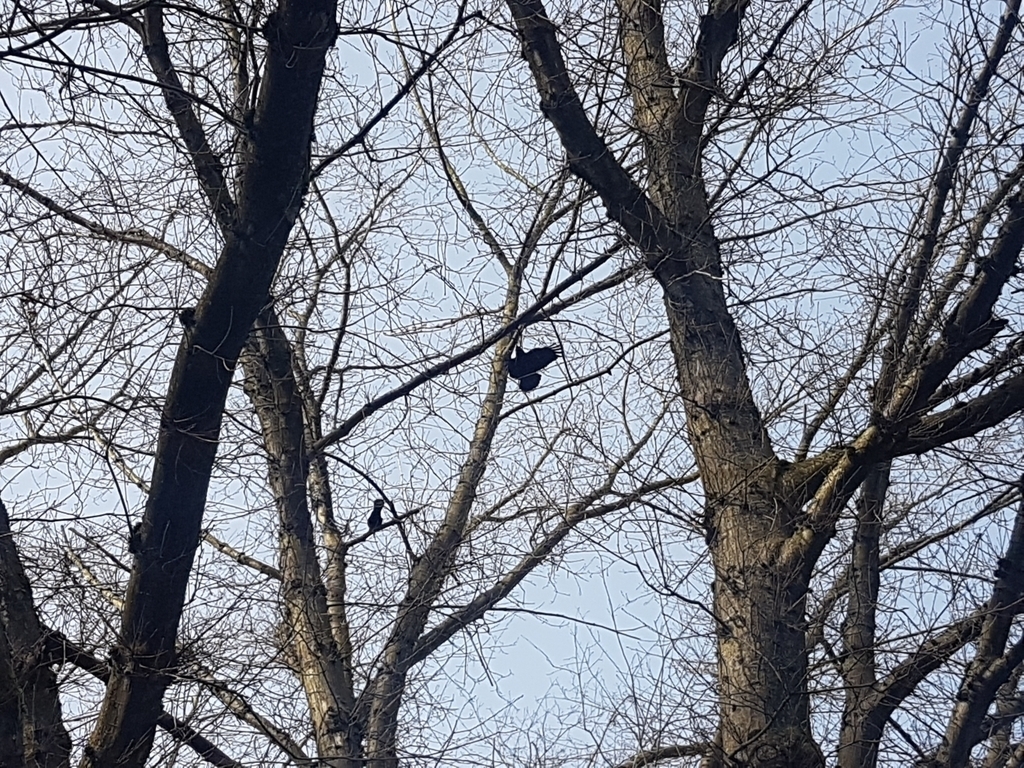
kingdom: Animalia
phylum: Chordata
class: Aves
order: Passeriformes
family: Corvidae
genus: Corvus
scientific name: Corvus brachyrhynchos
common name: American crow
